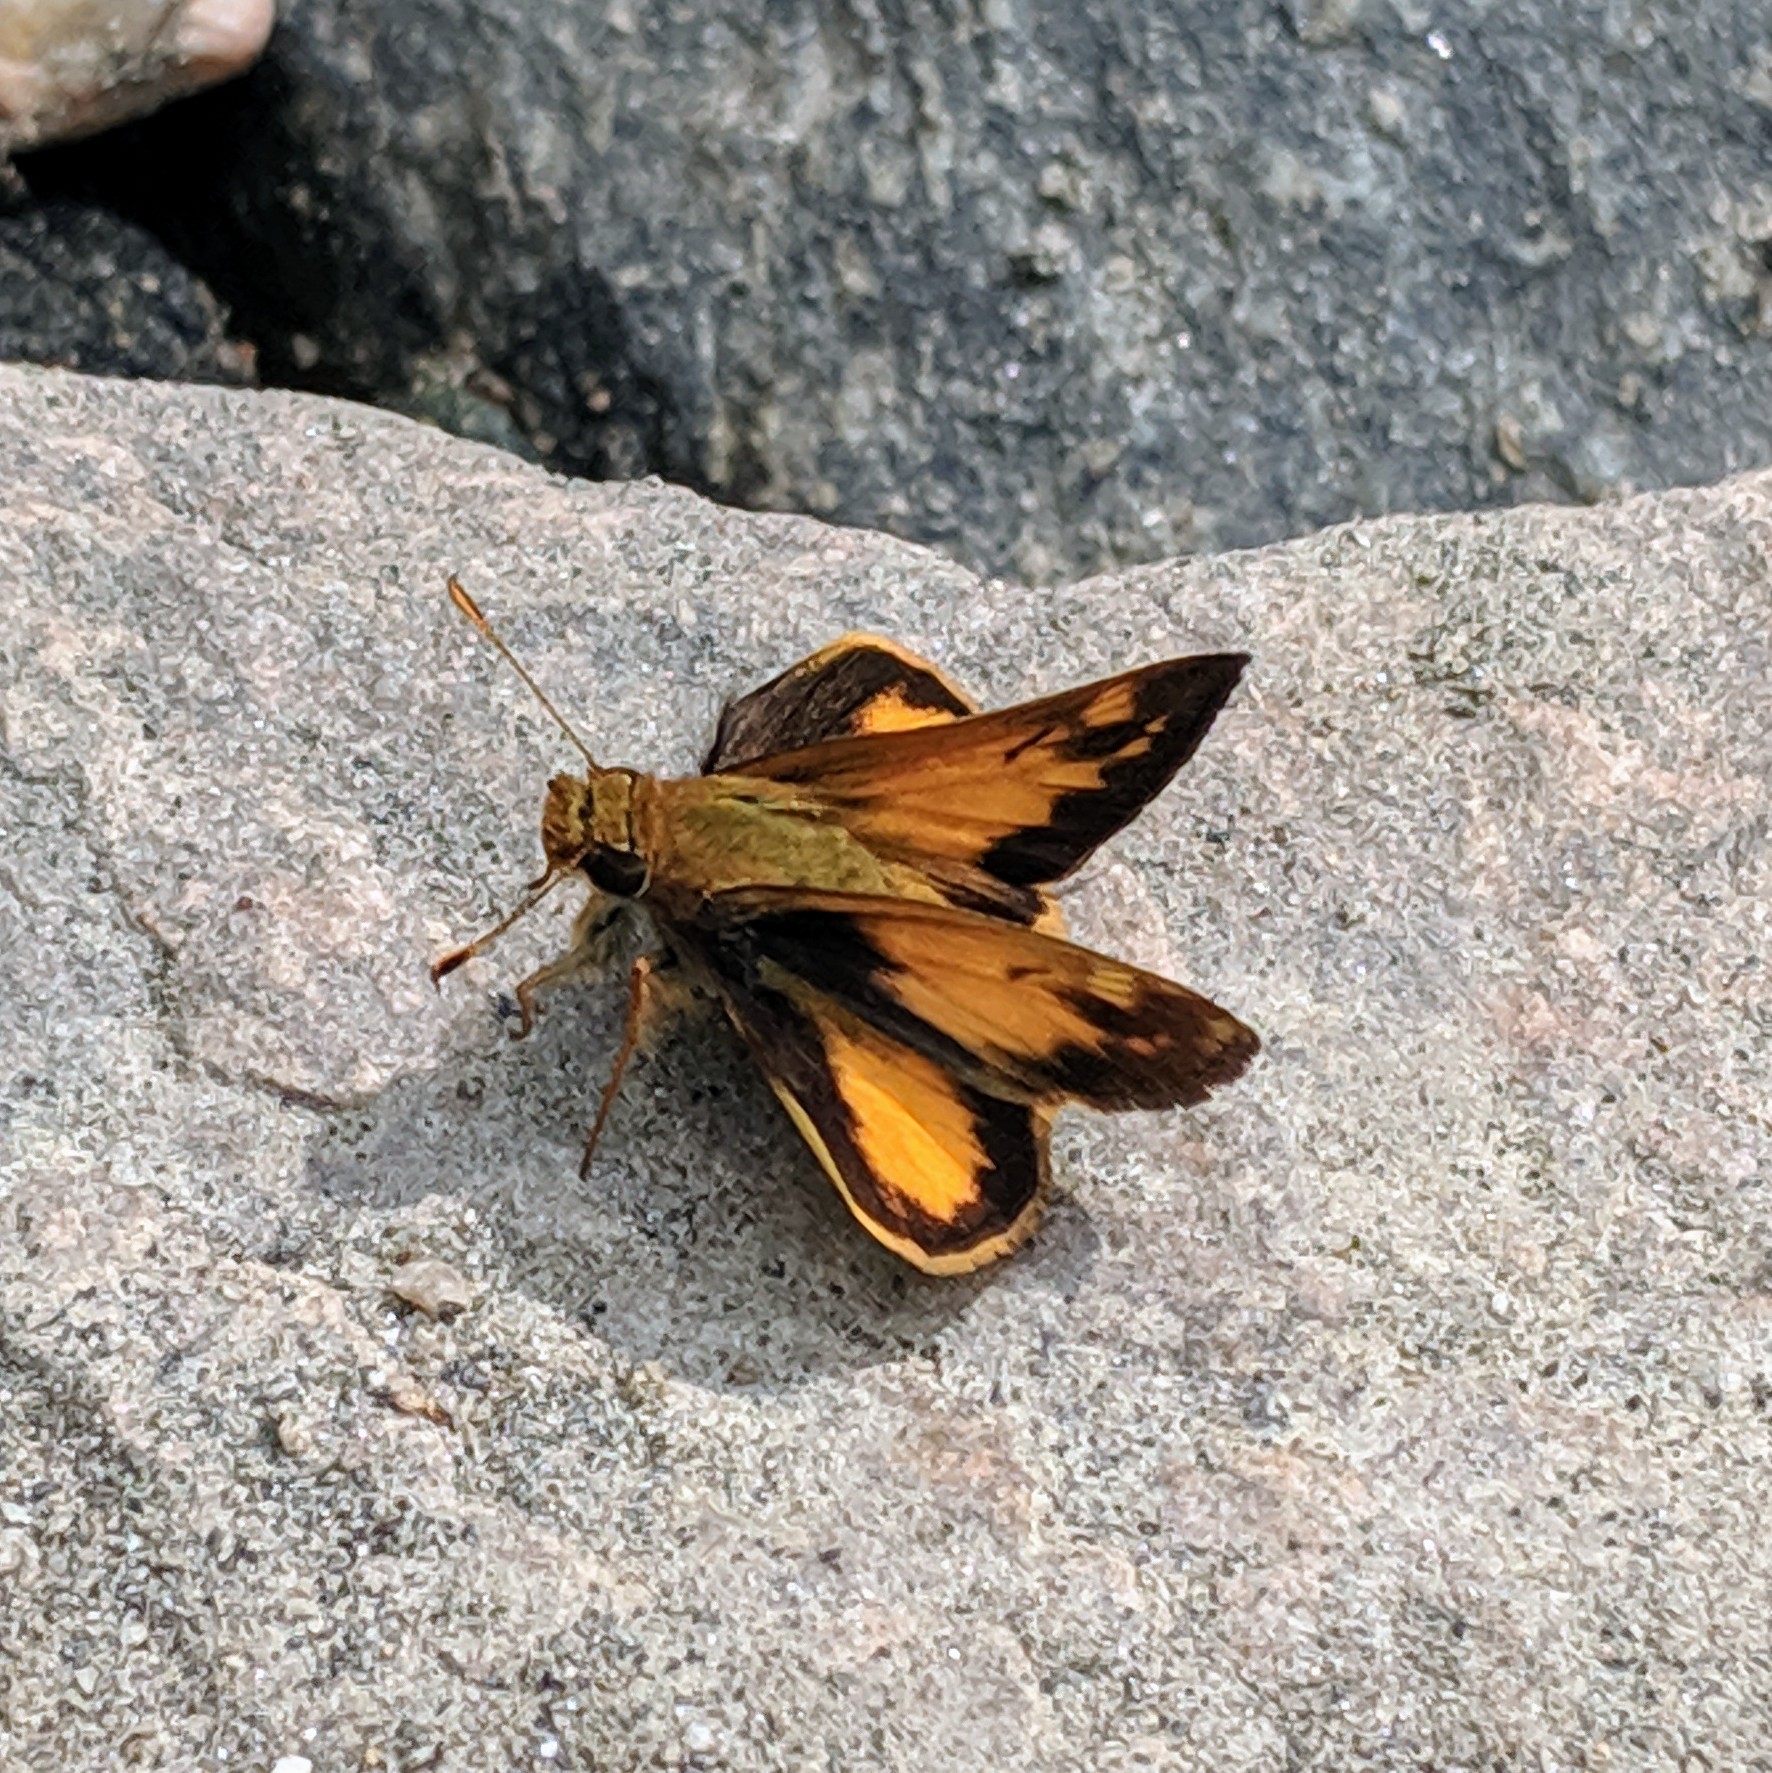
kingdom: Animalia
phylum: Arthropoda
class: Insecta
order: Lepidoptera
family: Hesperiidae
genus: Lon
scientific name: Lon zabulon
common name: Zabulon skipper
